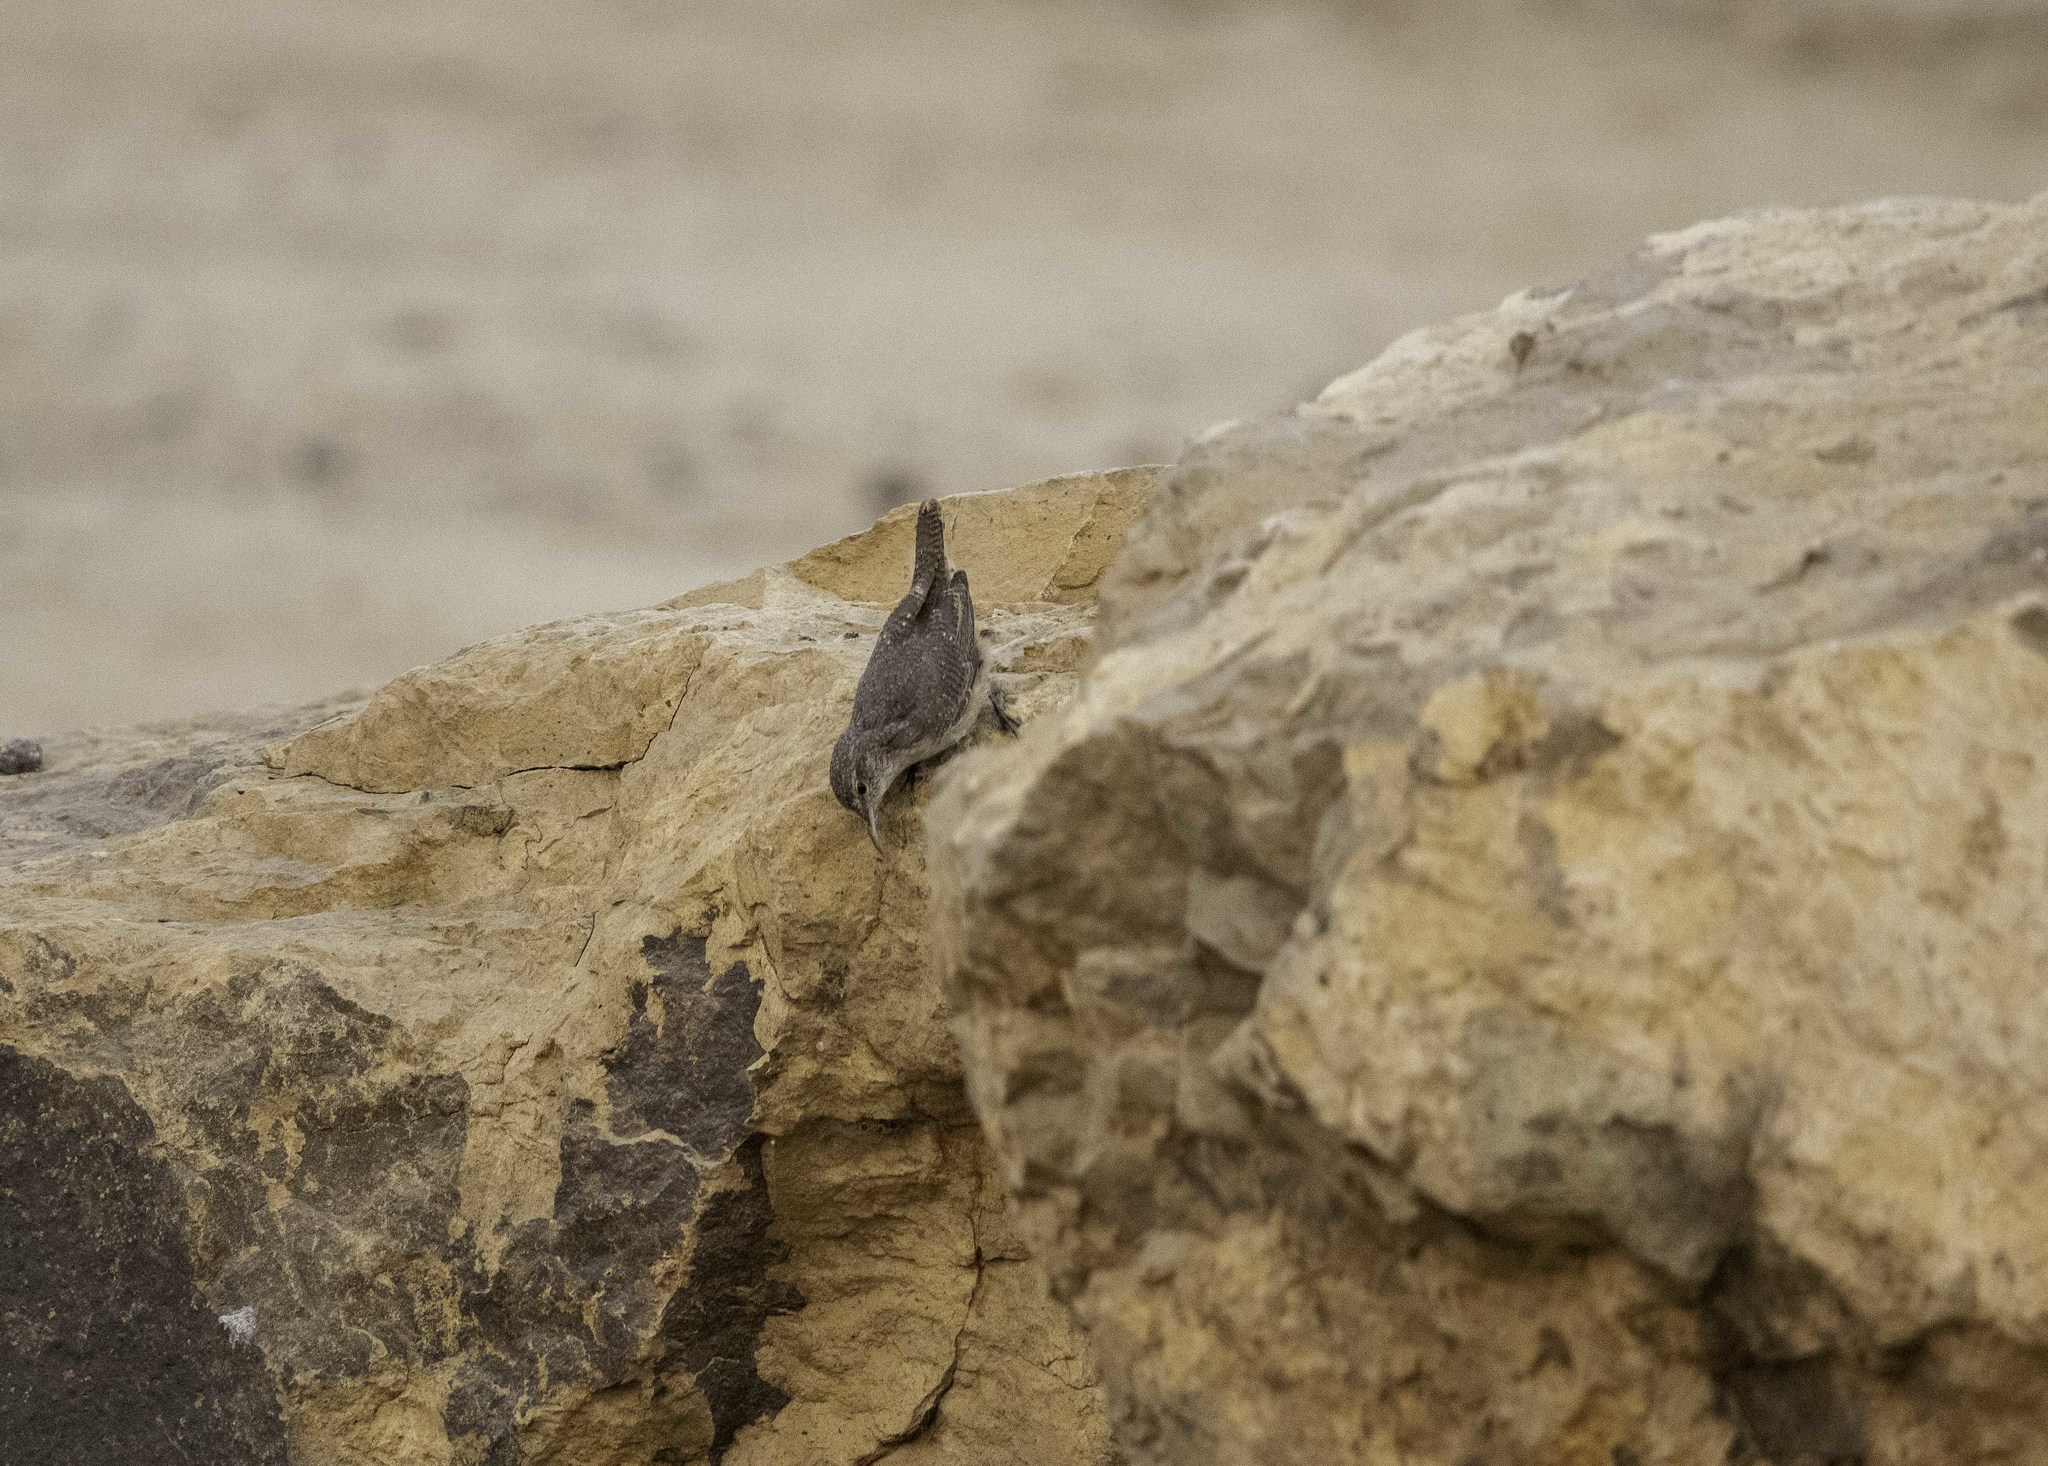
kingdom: Animalia
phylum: Chordata
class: Aves
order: Passeriformes
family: Troglodytidae
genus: Salpinctes
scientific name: Salpinctes obsoletus
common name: Rock wren
